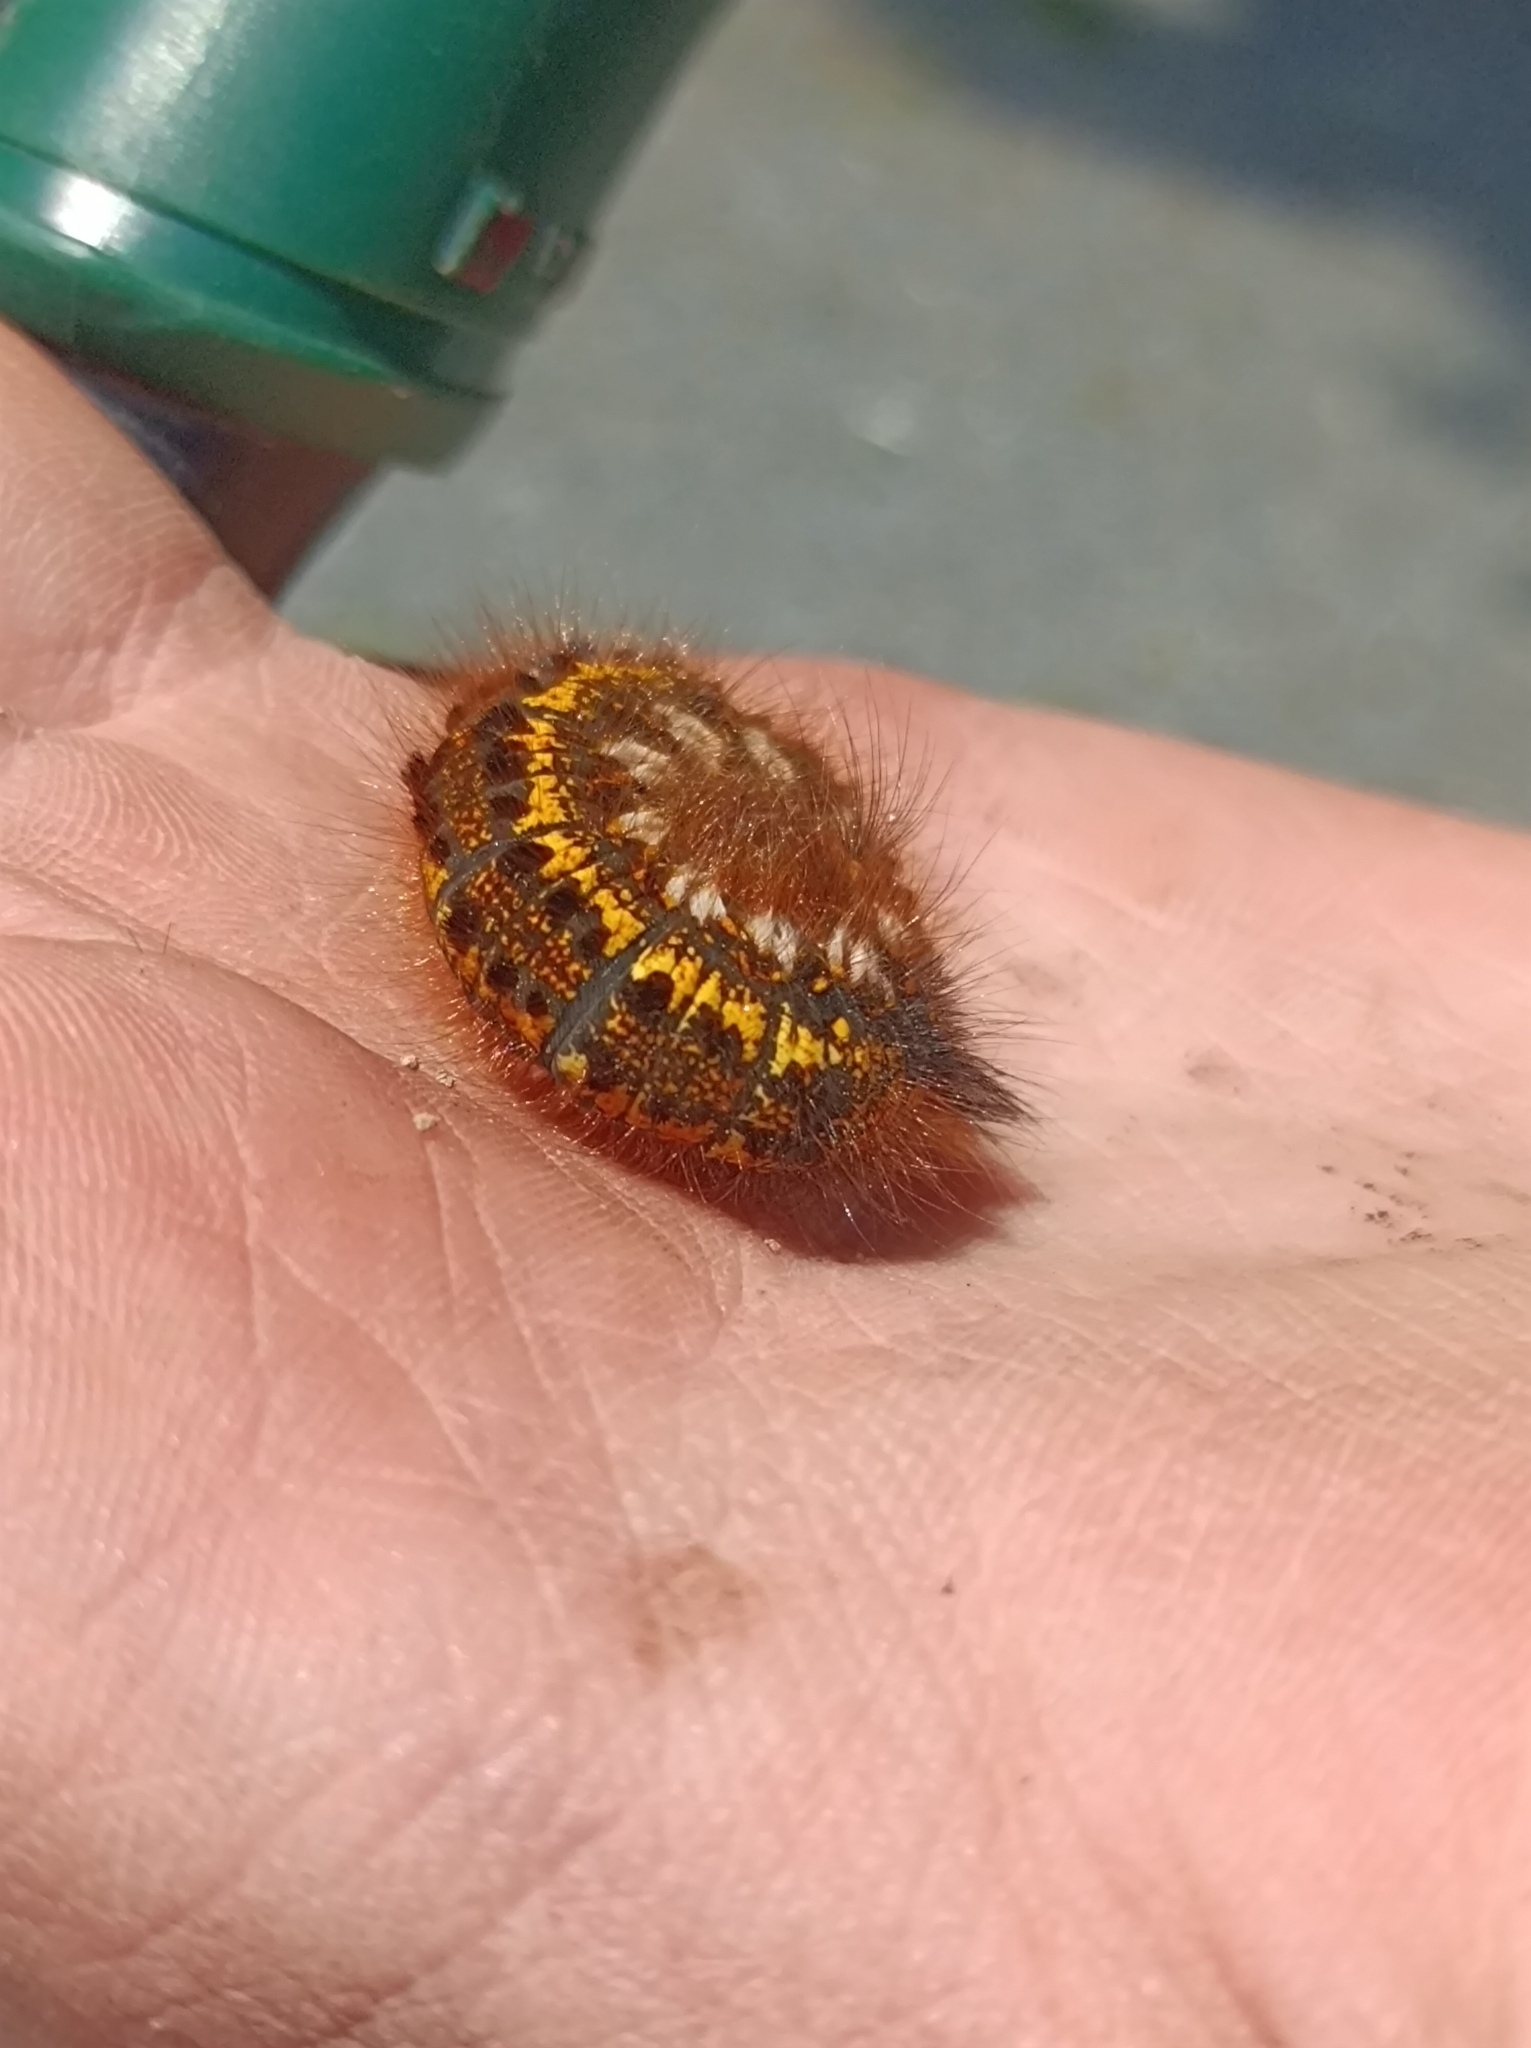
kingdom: Animalia
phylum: Arthropoda
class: Insecta
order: Lepidoptera
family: Lasiocampidae
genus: Euthrix
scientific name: Euthrix potatoria
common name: Drinker
